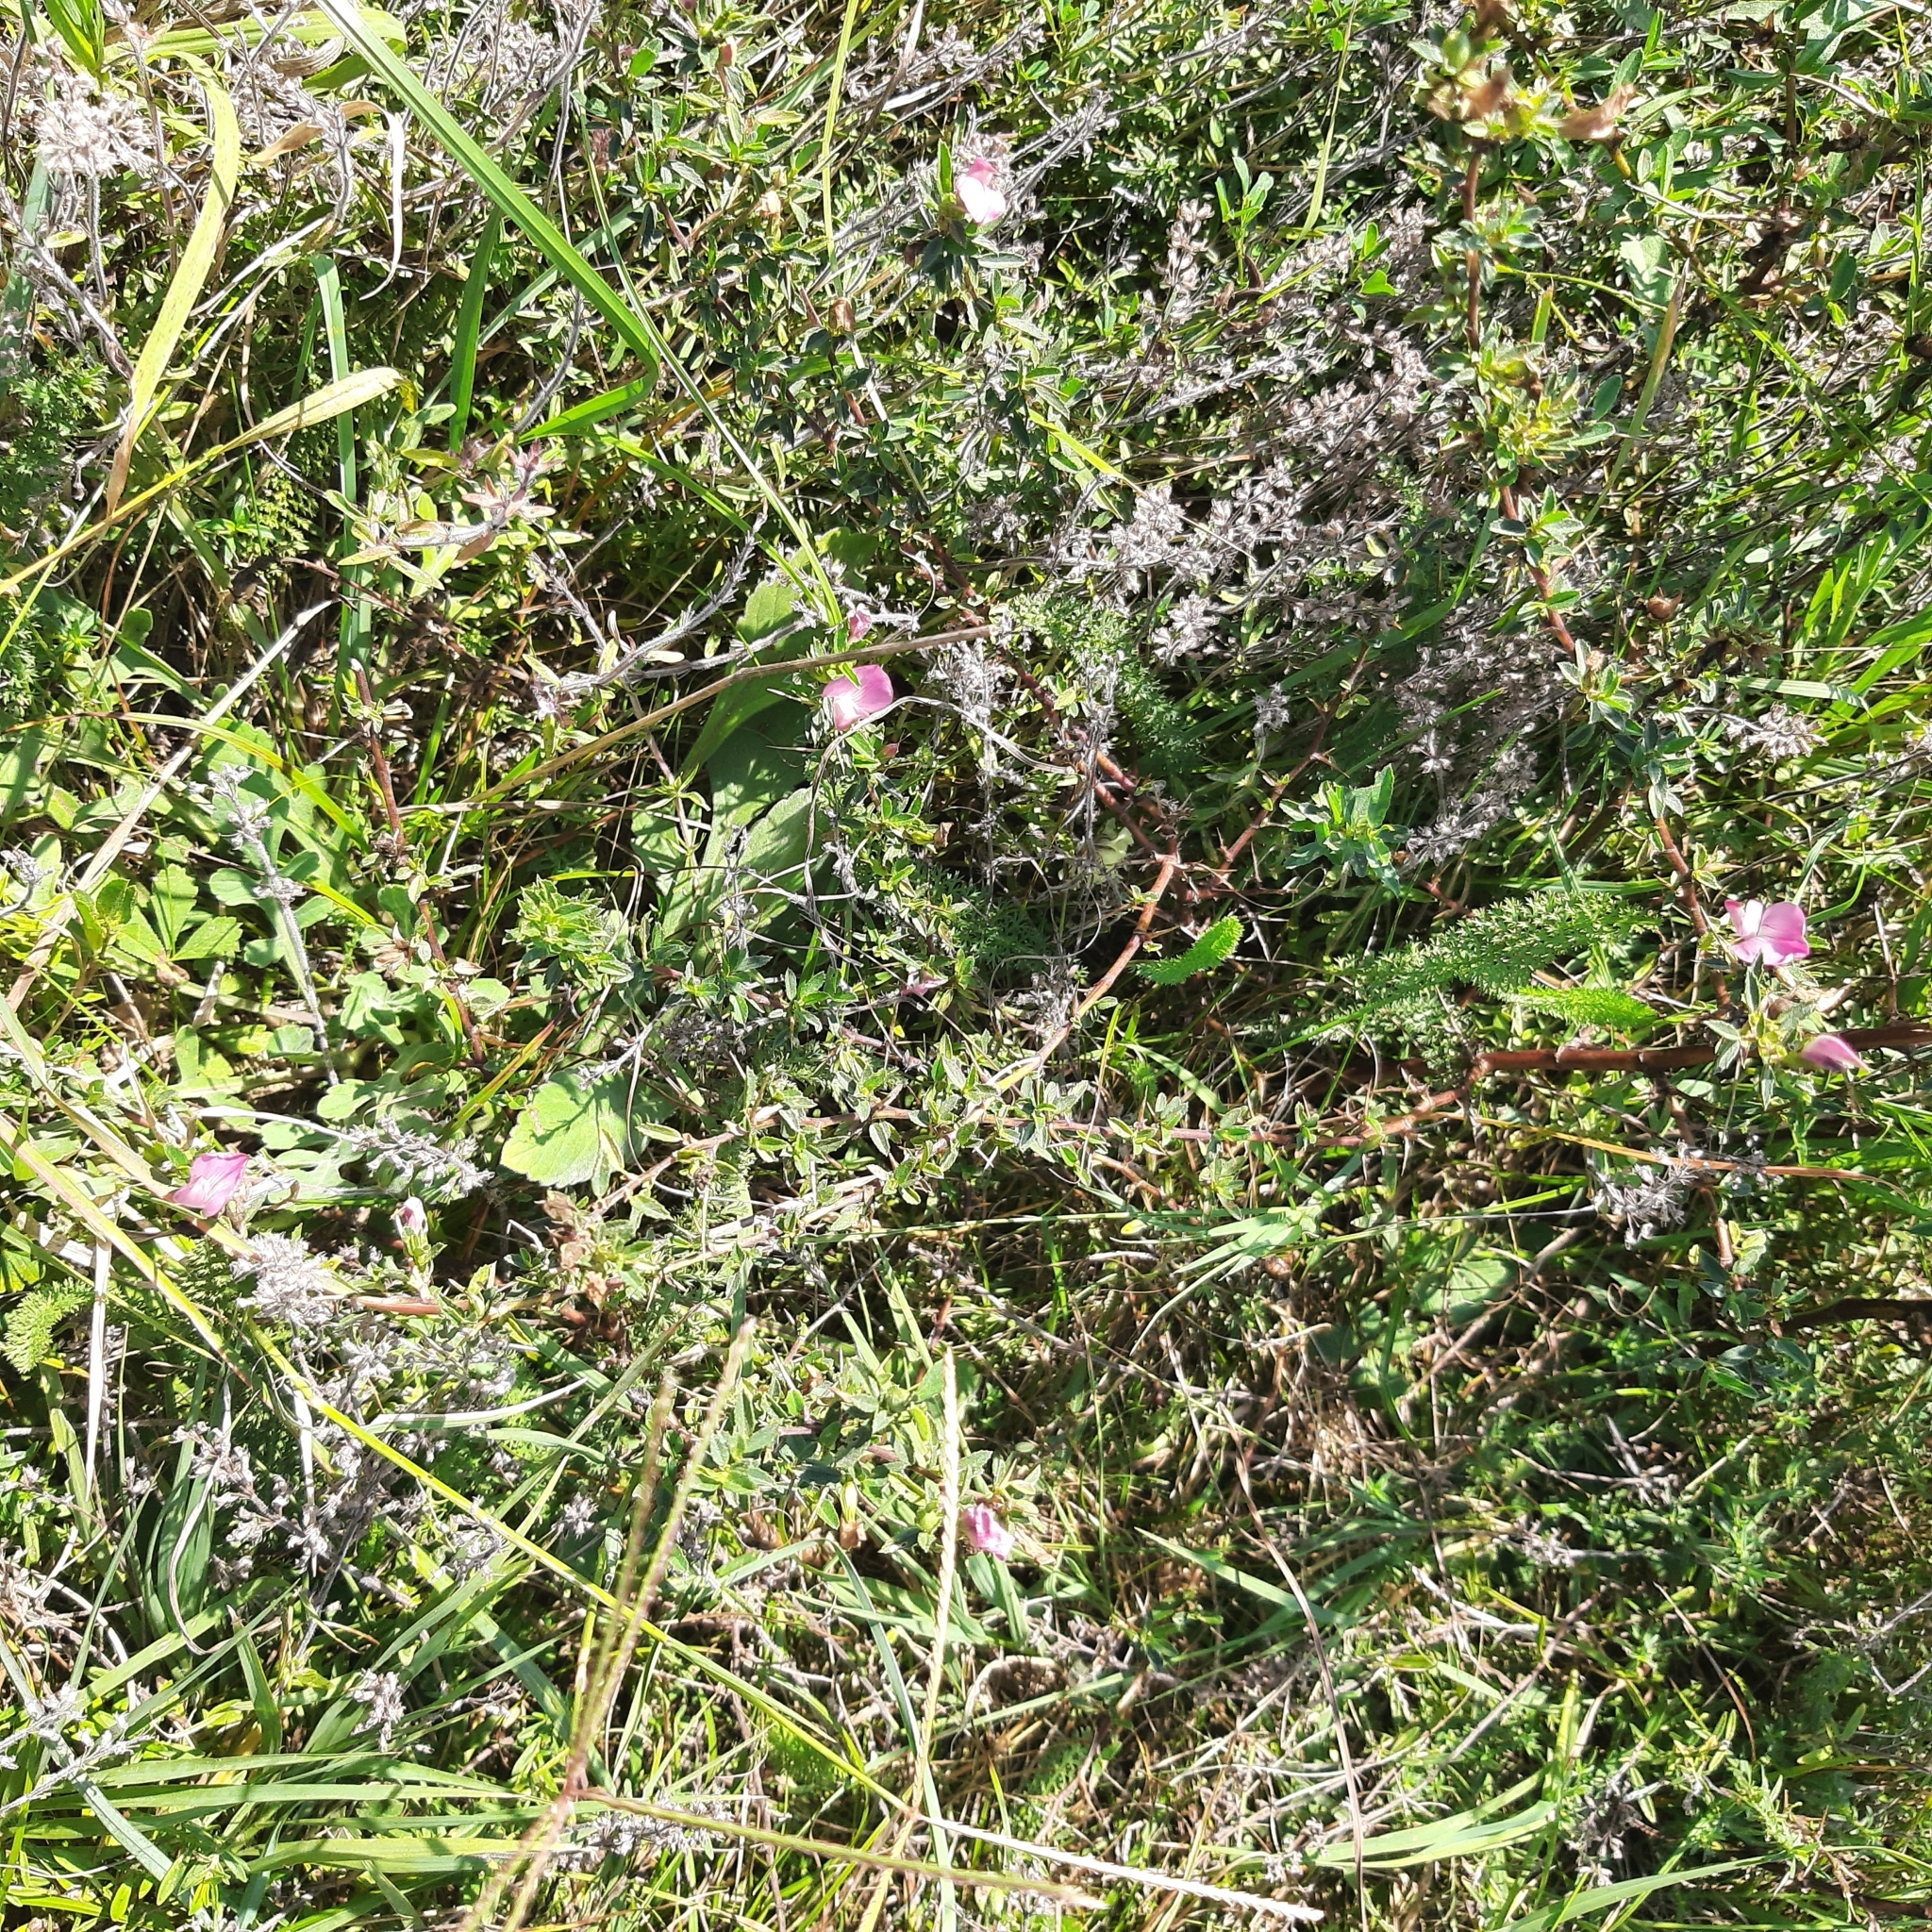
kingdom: Plantae
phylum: Tracheophyta
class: Magnoliopsida
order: Lamiales
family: Lamiaceae
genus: Thymus
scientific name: Thymus kosteleckyanus
